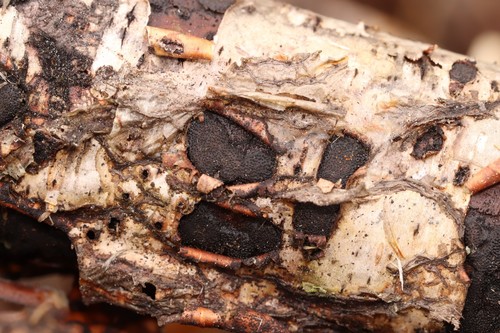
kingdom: Fungi
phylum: Ascomycota
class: Sordariomycetes
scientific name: Sordariomycetes
